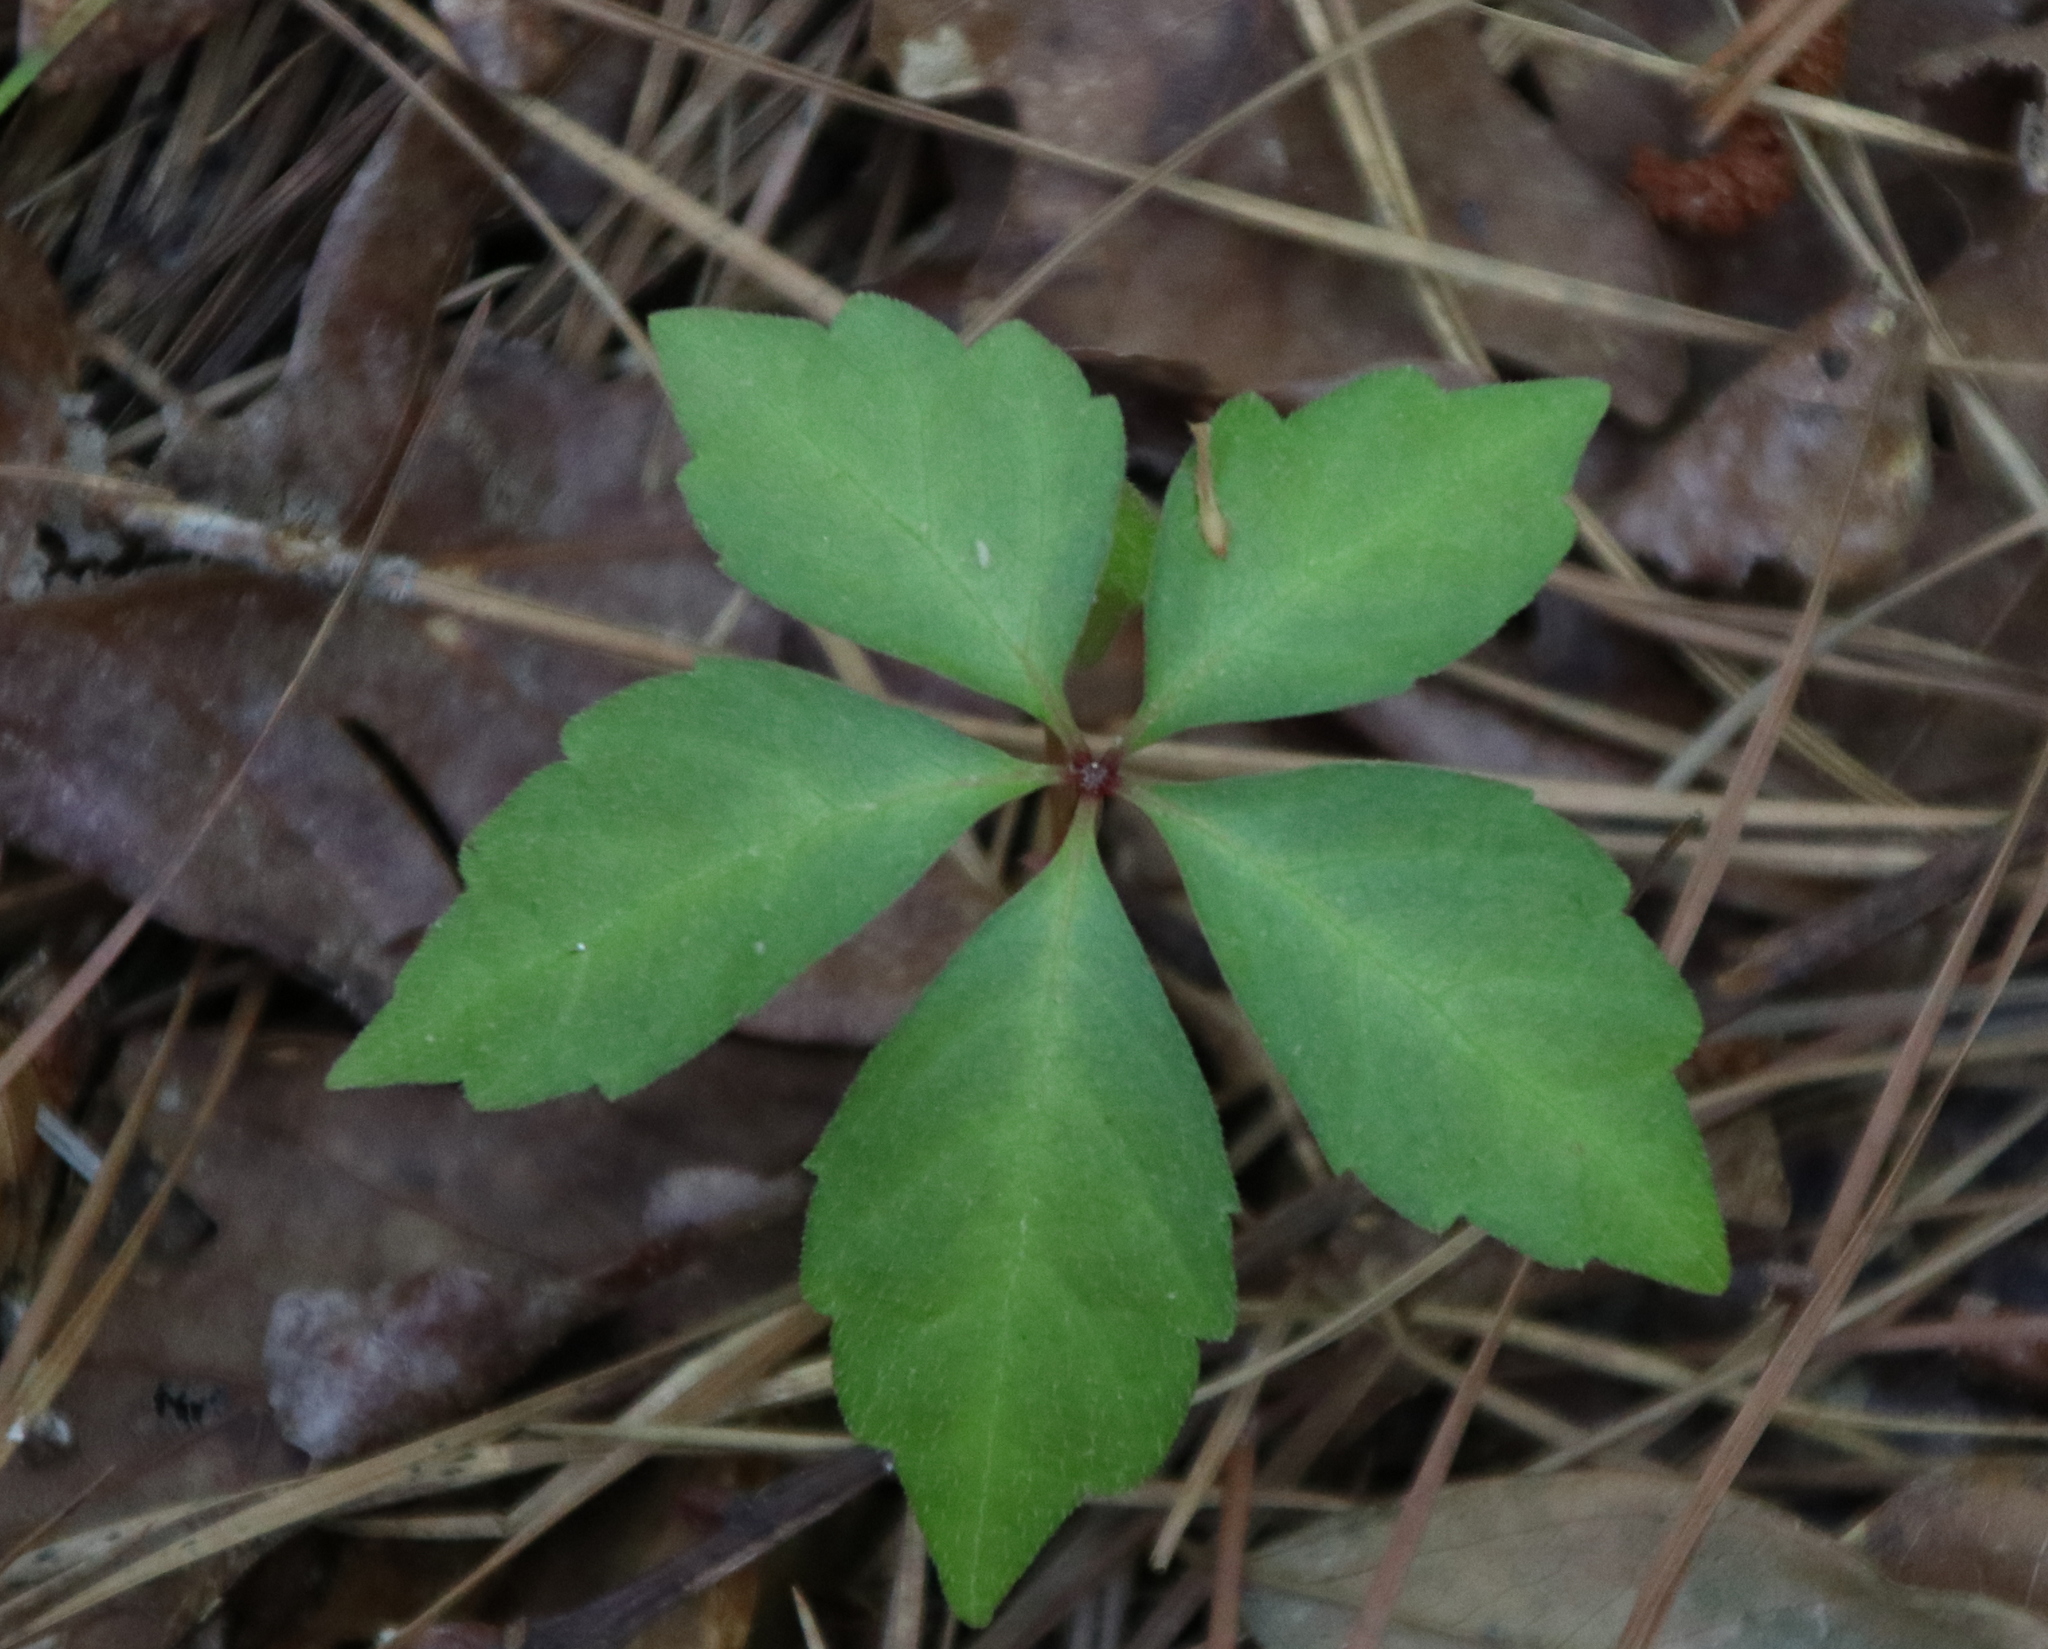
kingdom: Plantae
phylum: Tracheophyta
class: Magnoliopsida
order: Vitales
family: Vitaceae
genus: Parthenocissus
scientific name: Parthenocissus quinquefolia
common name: Virginia-creeper
